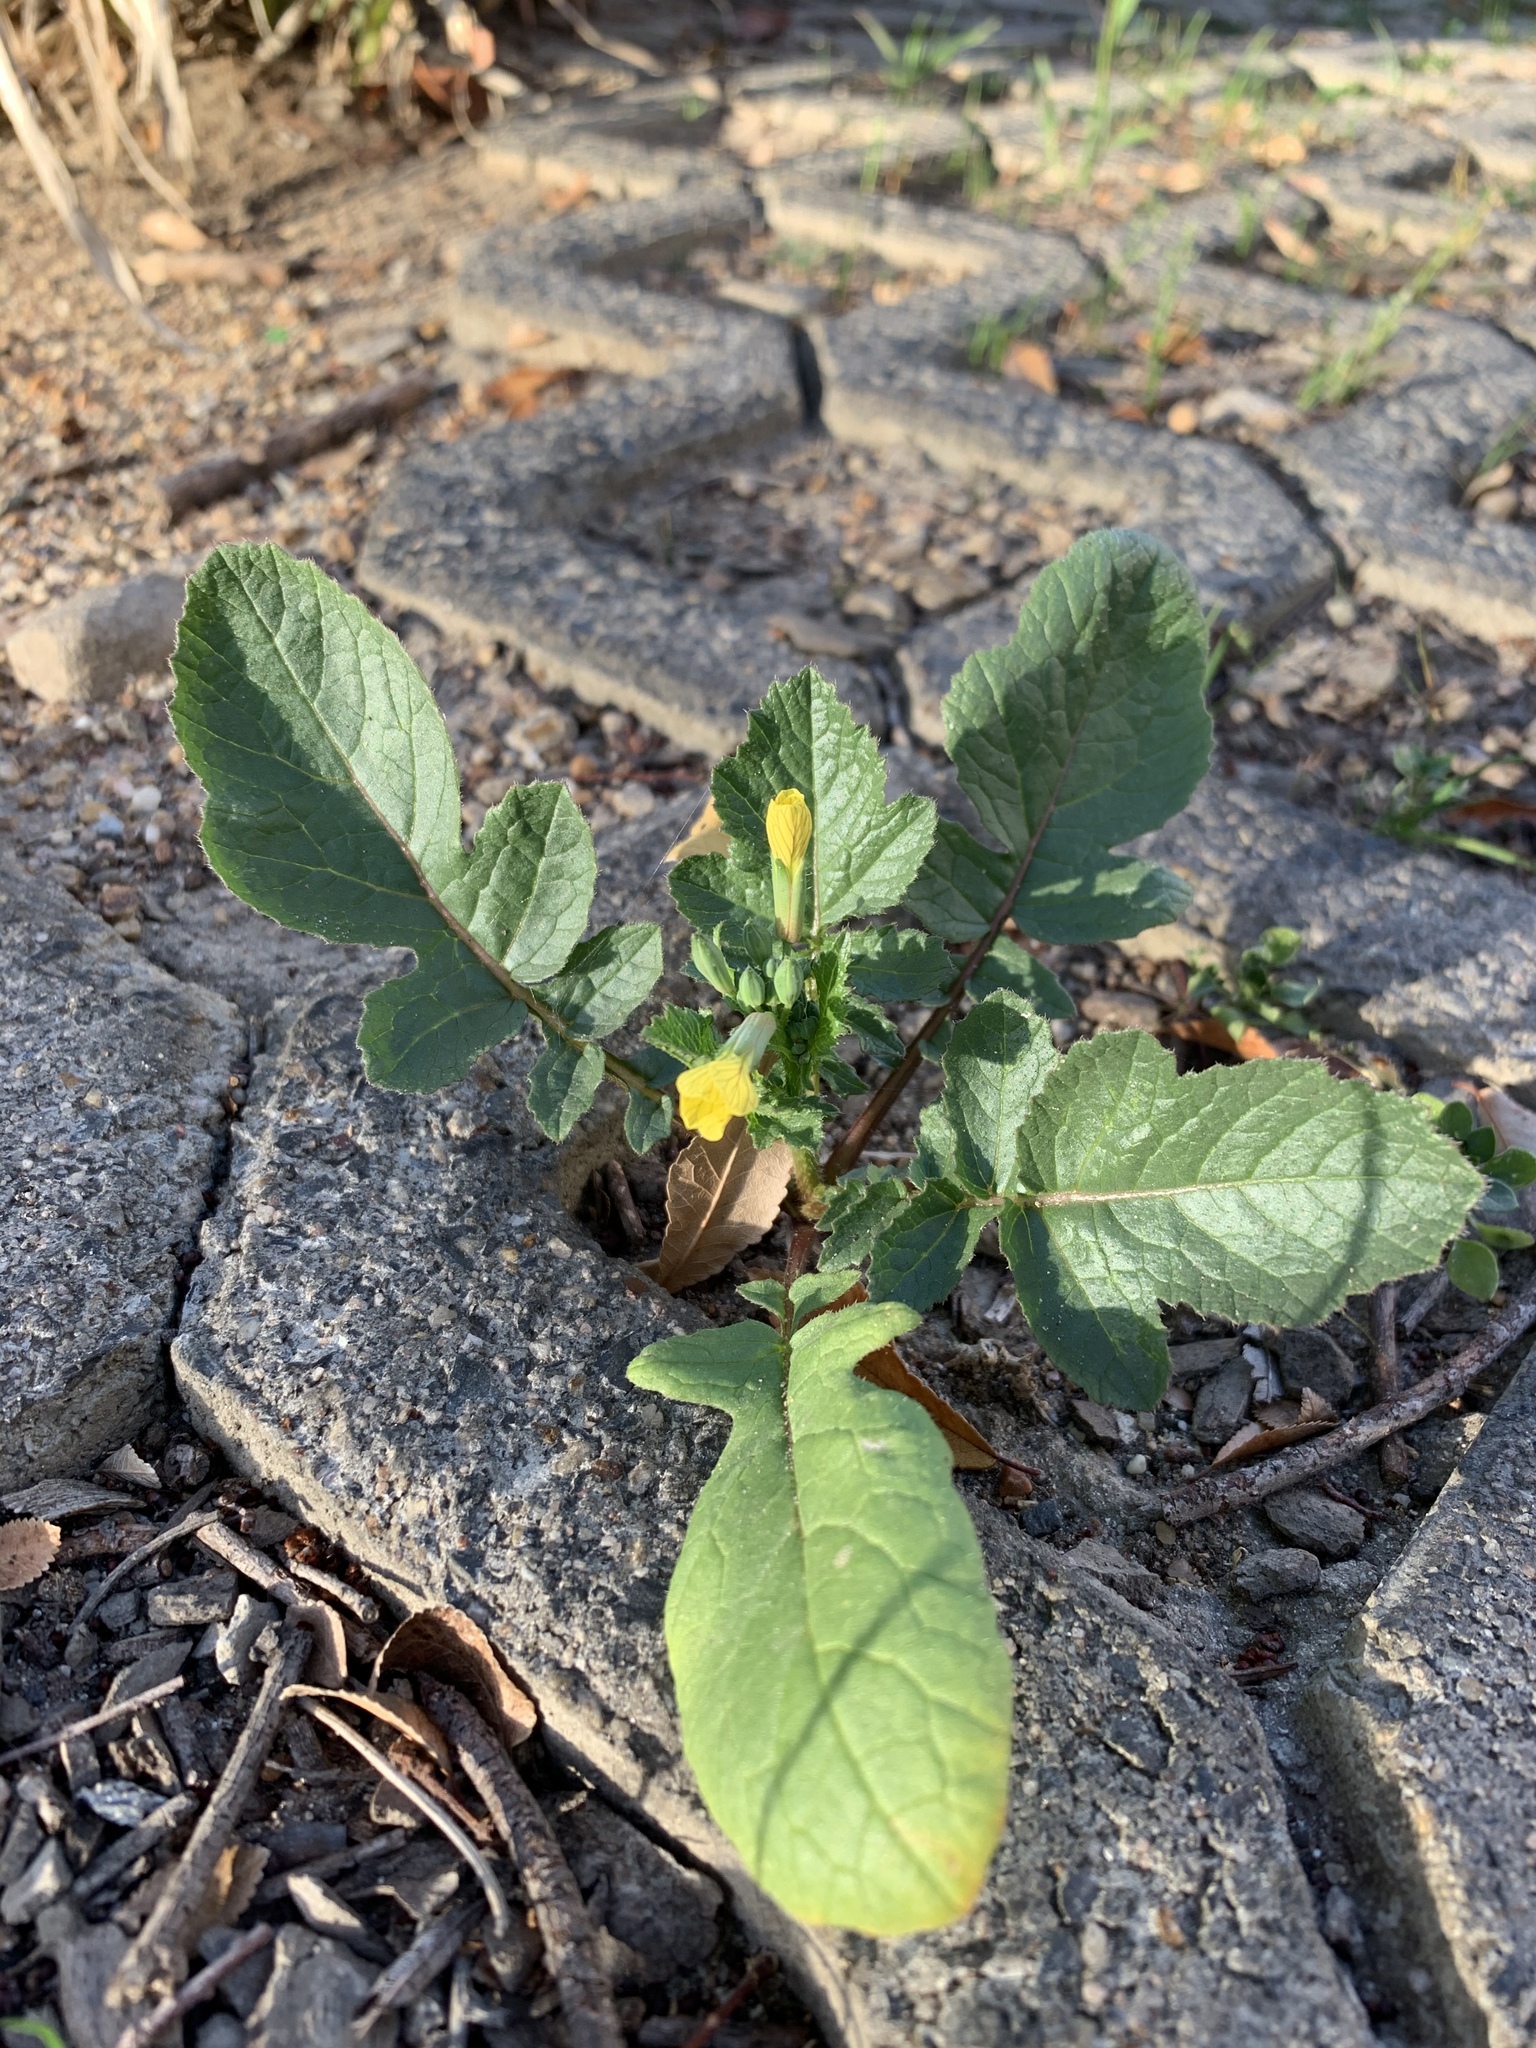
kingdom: Plantae
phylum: Tracheophyta
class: Magnoliopsida
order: Brassicales
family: Brassicaceae
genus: Raphanus
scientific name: Raphanus raphanistrum
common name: Wild radish
